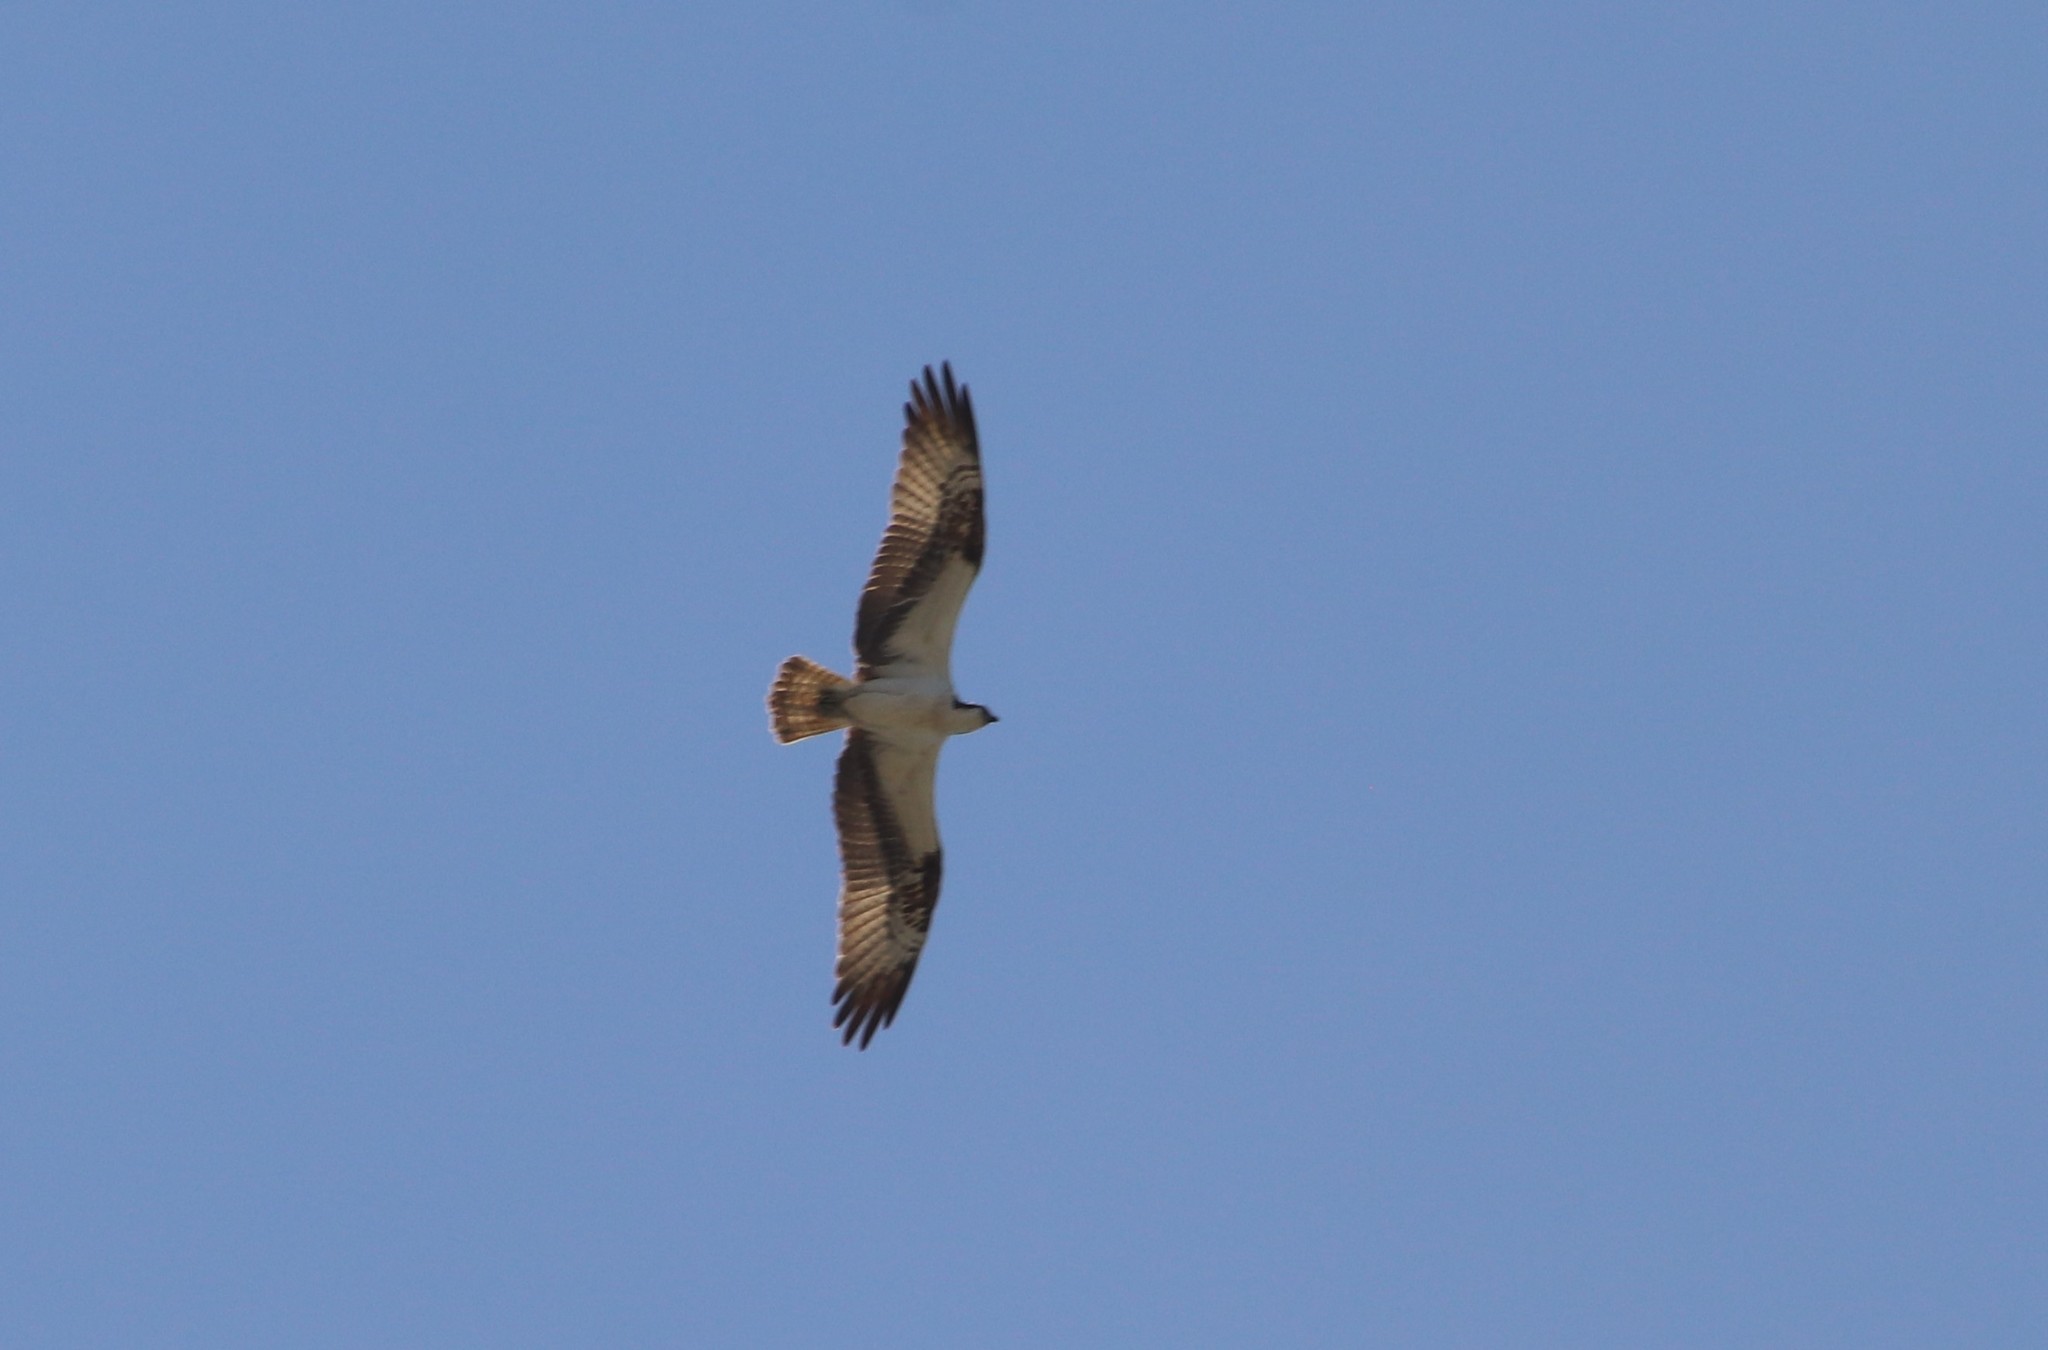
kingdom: Animalia
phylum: Chordata
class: Aves
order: Accipitriformes
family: Pandionidae
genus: Pandion
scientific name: Pandion haliaetus
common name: Osprey
